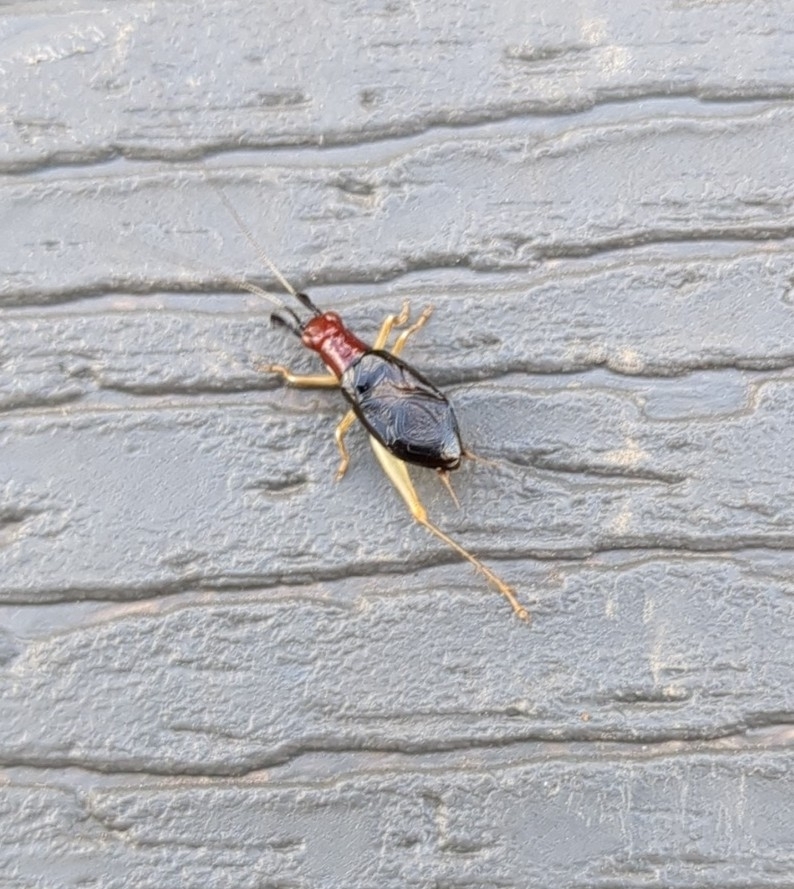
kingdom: Animalia
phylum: Arthropoda
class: Insecta
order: Orthoptera
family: Trigonidiidae
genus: Phyllopalpus
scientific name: Phyllopalpus pulchellus
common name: Handsome trig
